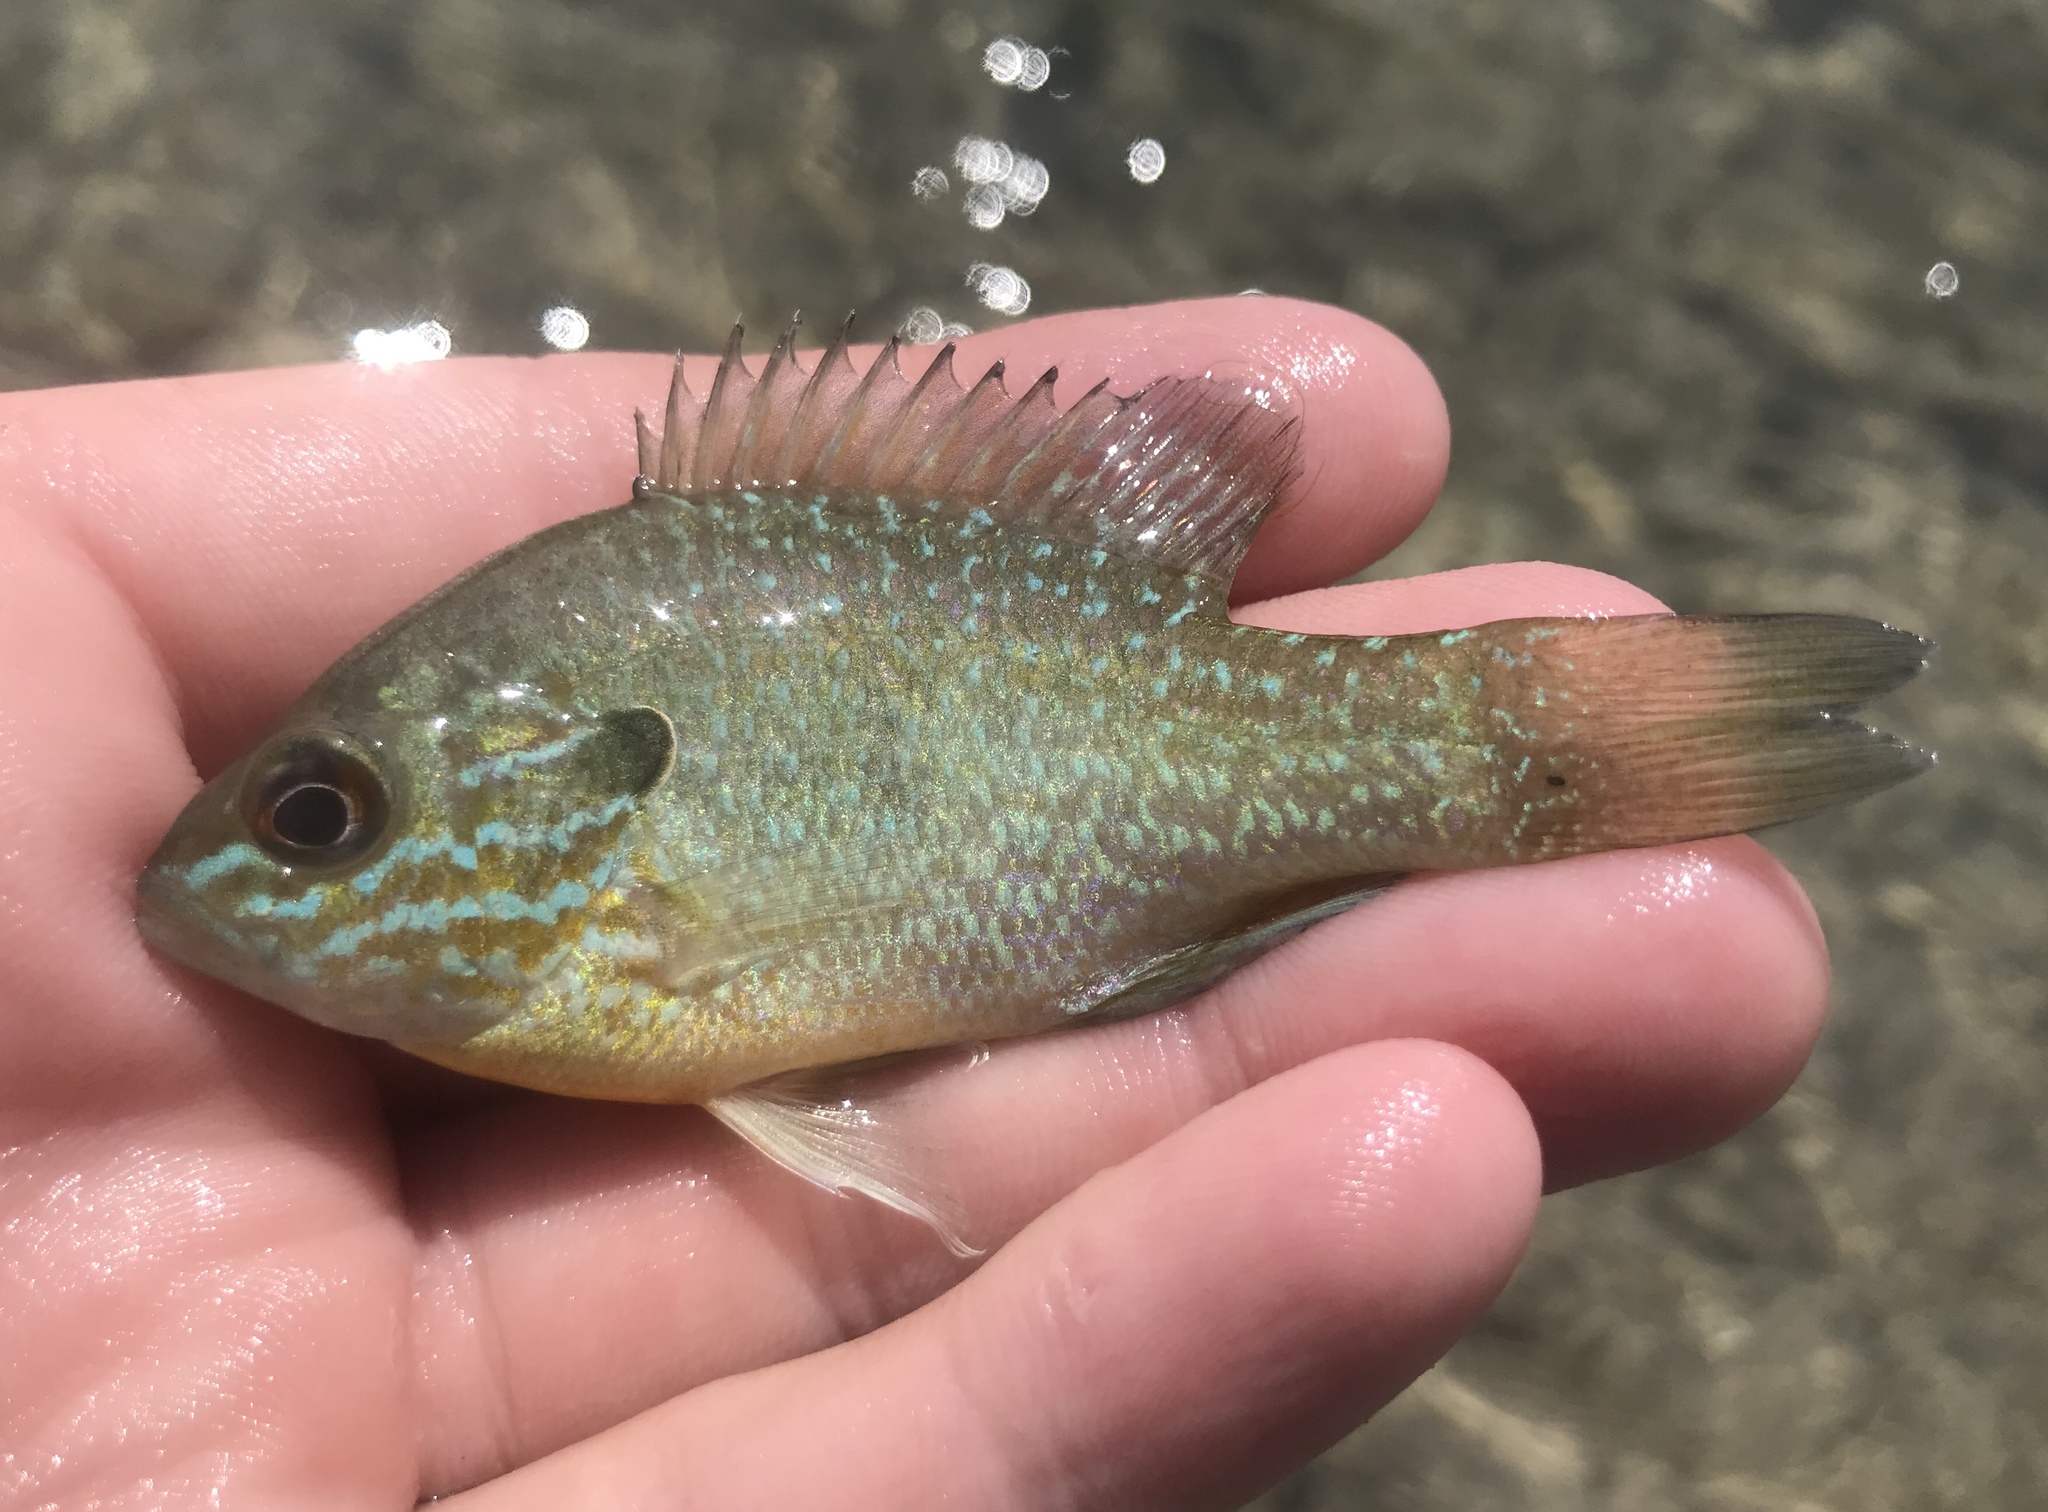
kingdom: Animalia
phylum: Chordata
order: Perciformes
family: Centrarchidae
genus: Lepomis
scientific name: Lepomis megalotis
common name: Longear sunfish
